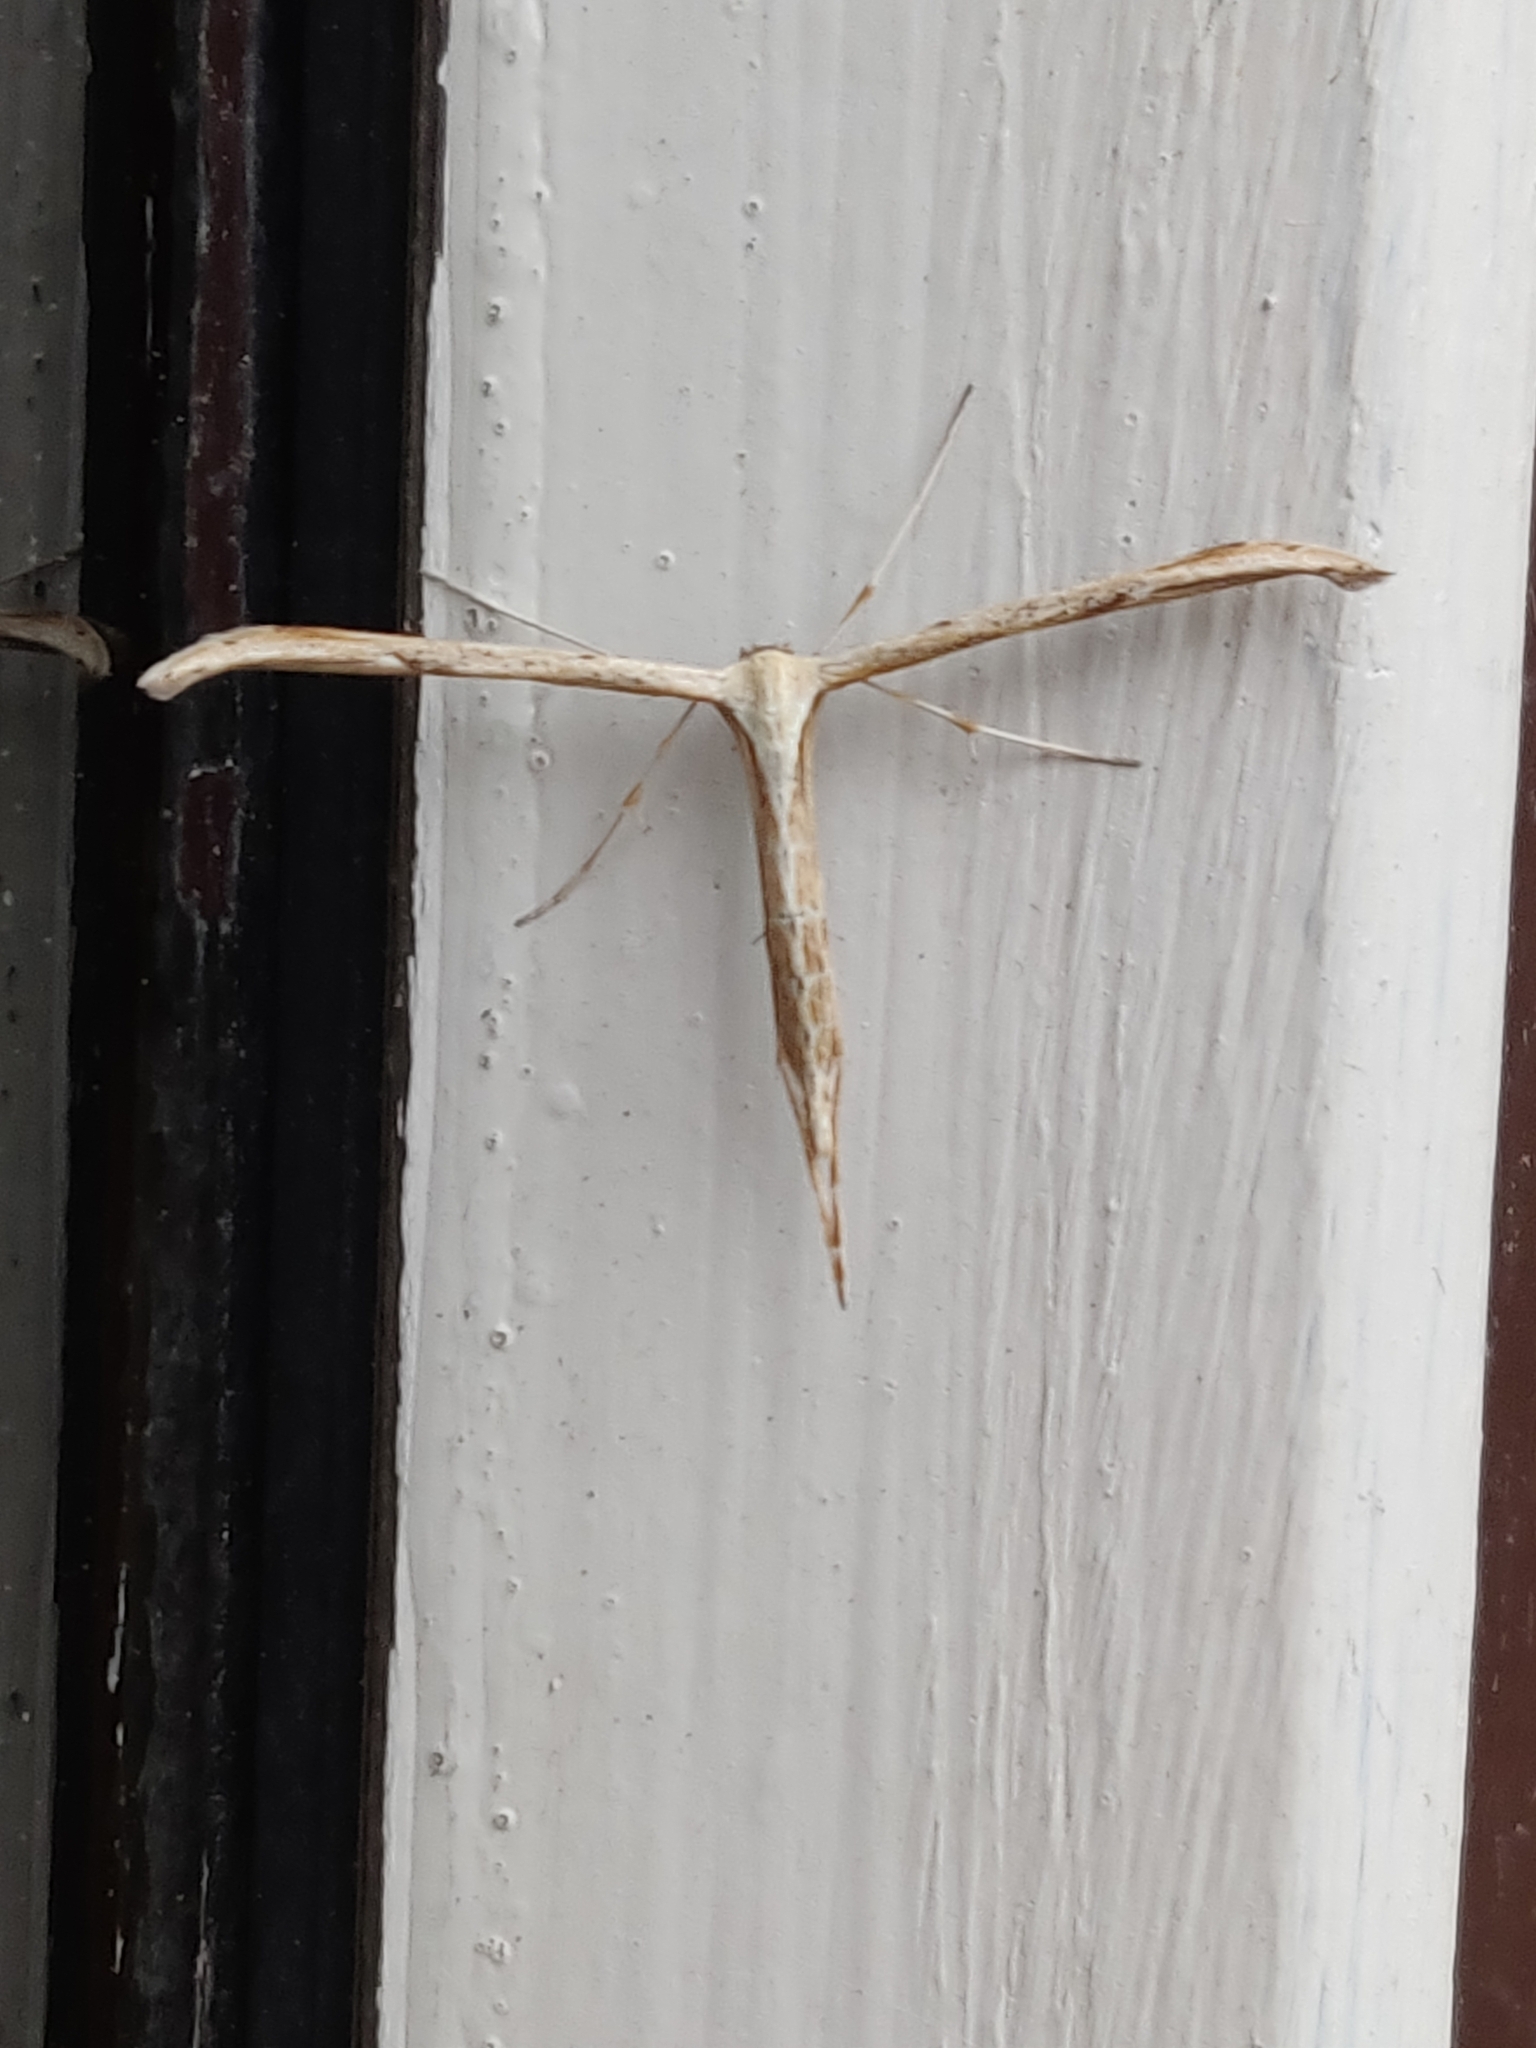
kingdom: Animalia
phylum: Arthropoda
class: Insecta
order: Lepidoptera
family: Pterophoridae
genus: Emmelina
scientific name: Emmelina monodactyla
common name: Common plume
